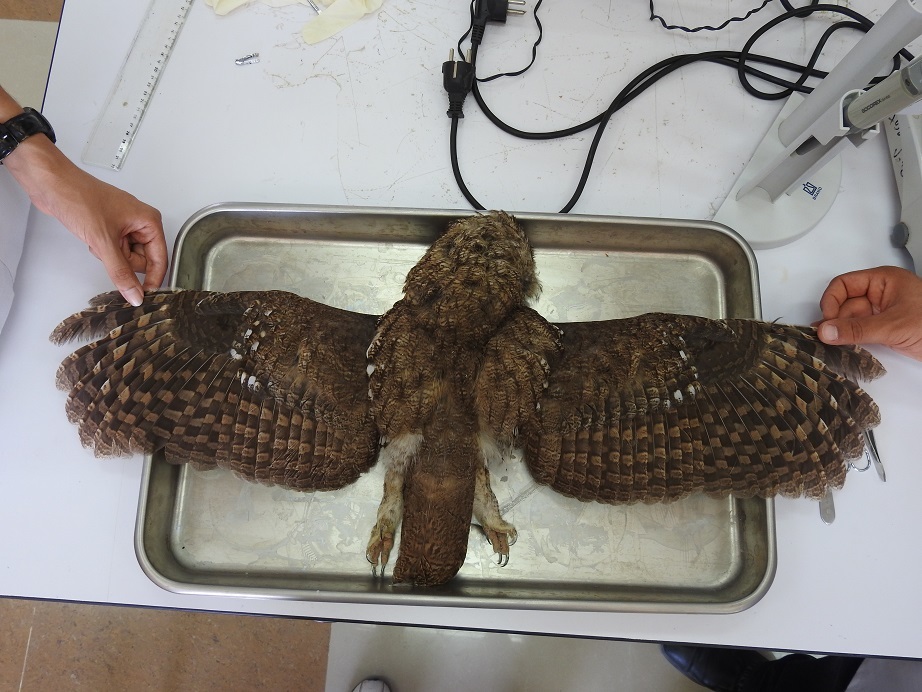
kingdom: Animalia
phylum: Chordata
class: Aves
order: Strigiformes
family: Strigidae
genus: Strix
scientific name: Strix aluco
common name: Tawny owl
